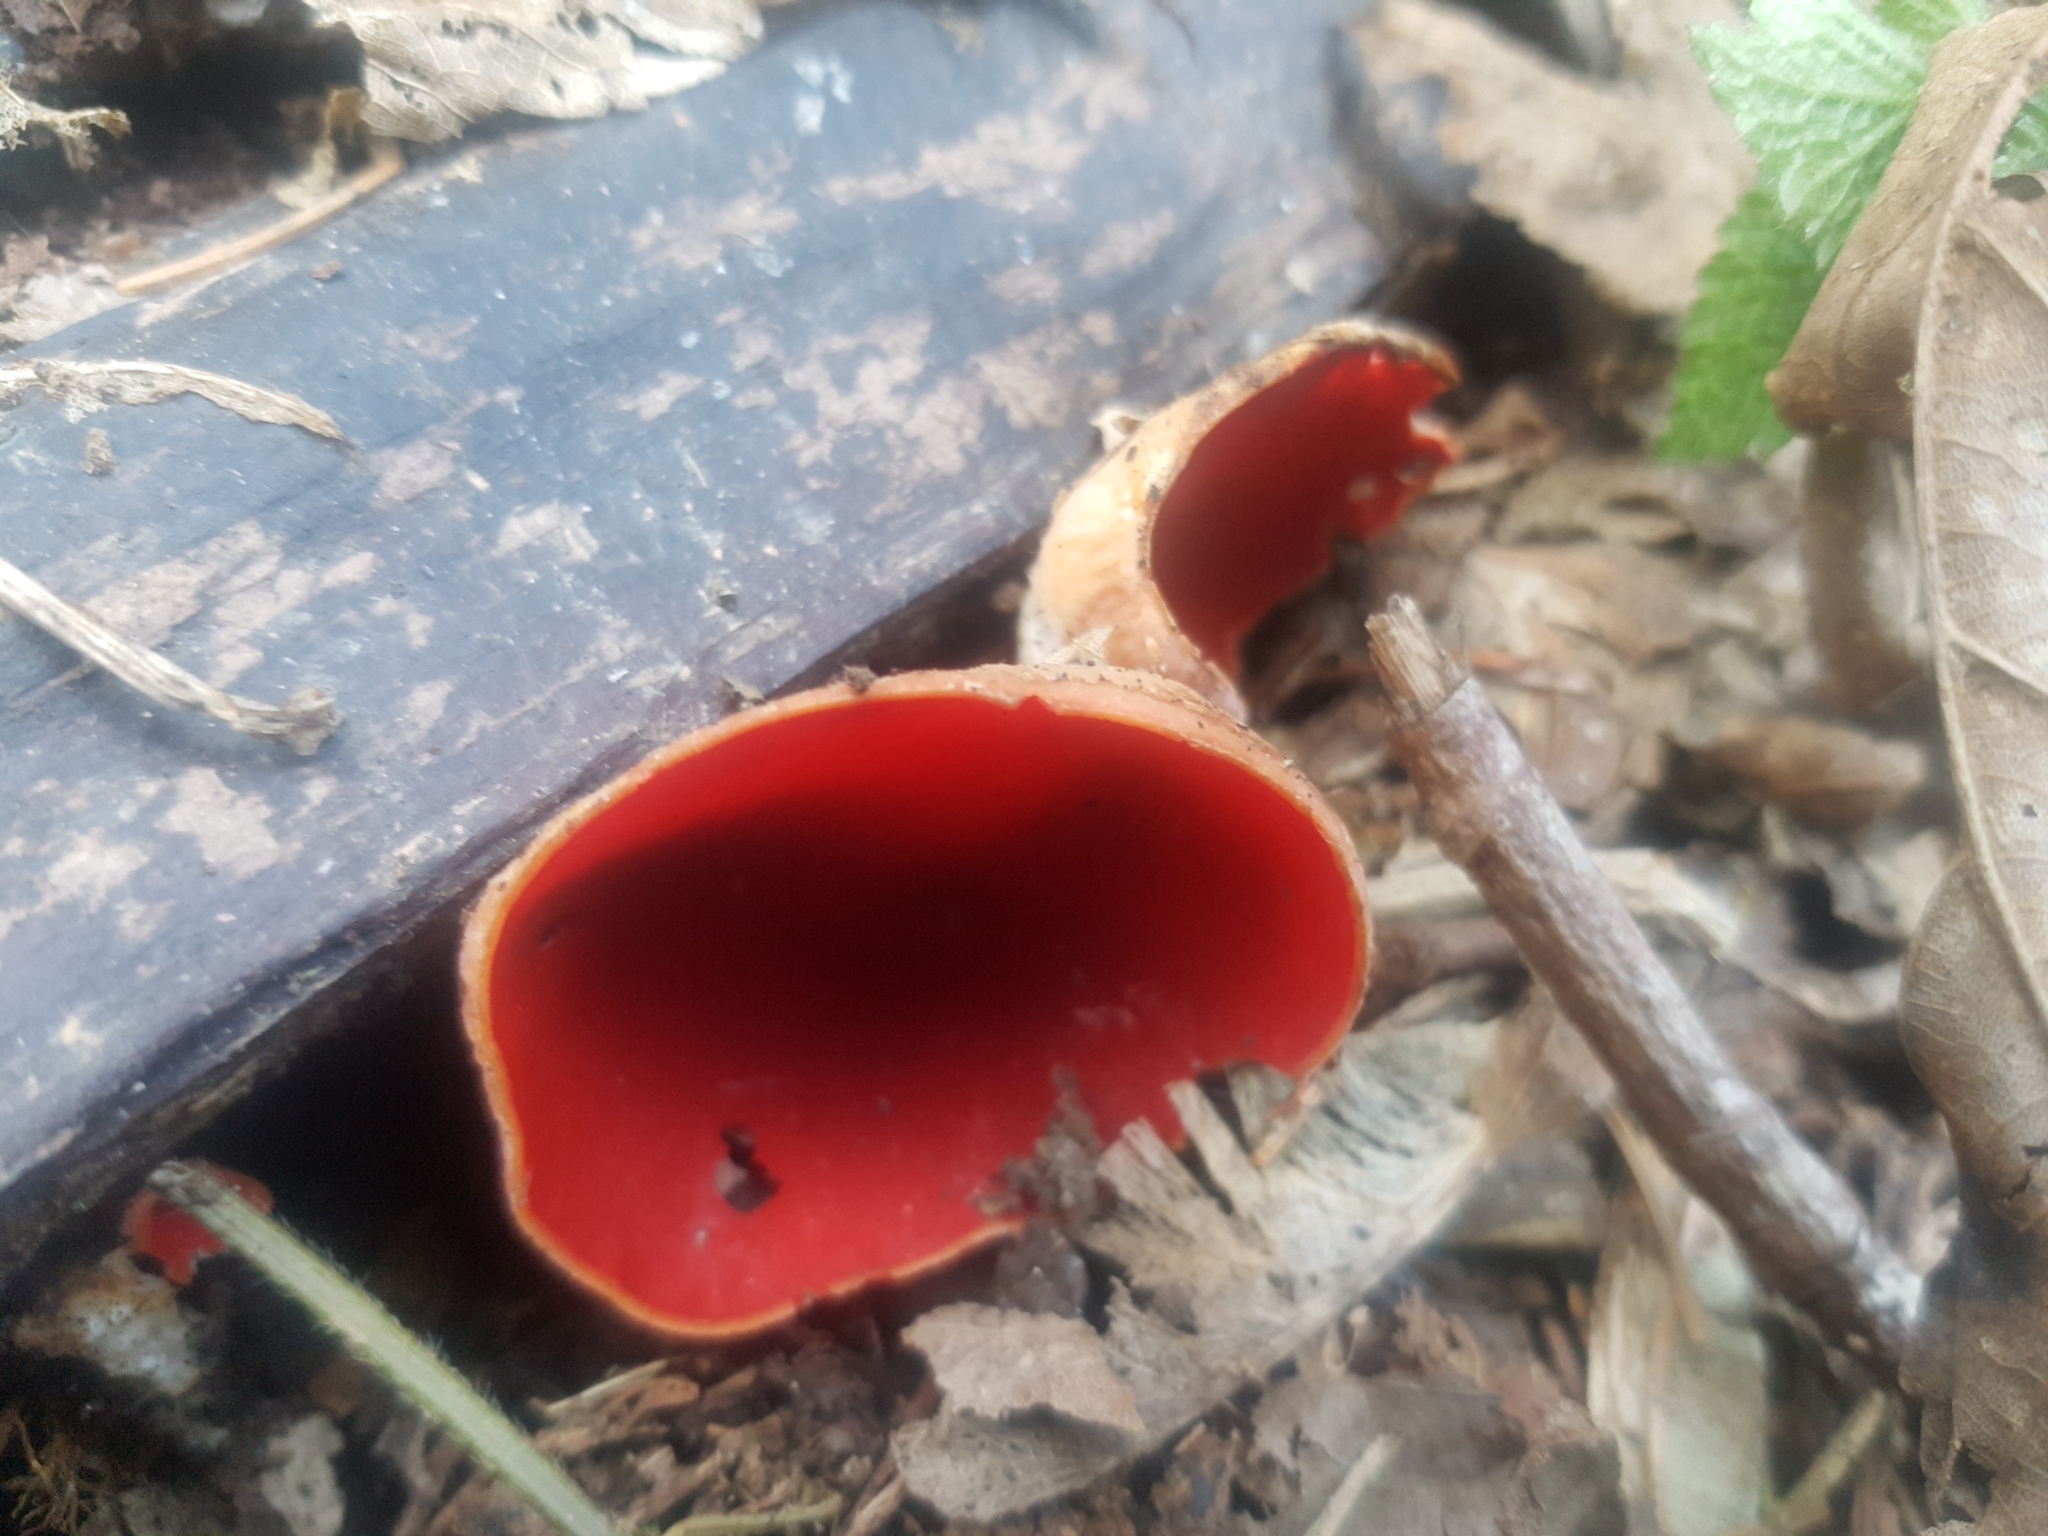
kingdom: Fungi
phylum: Ascomycota
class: Pezizomycetes
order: Pezizales
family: Sarcoscyphaceae
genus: Sarcoscypha
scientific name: Sarcoscypha
